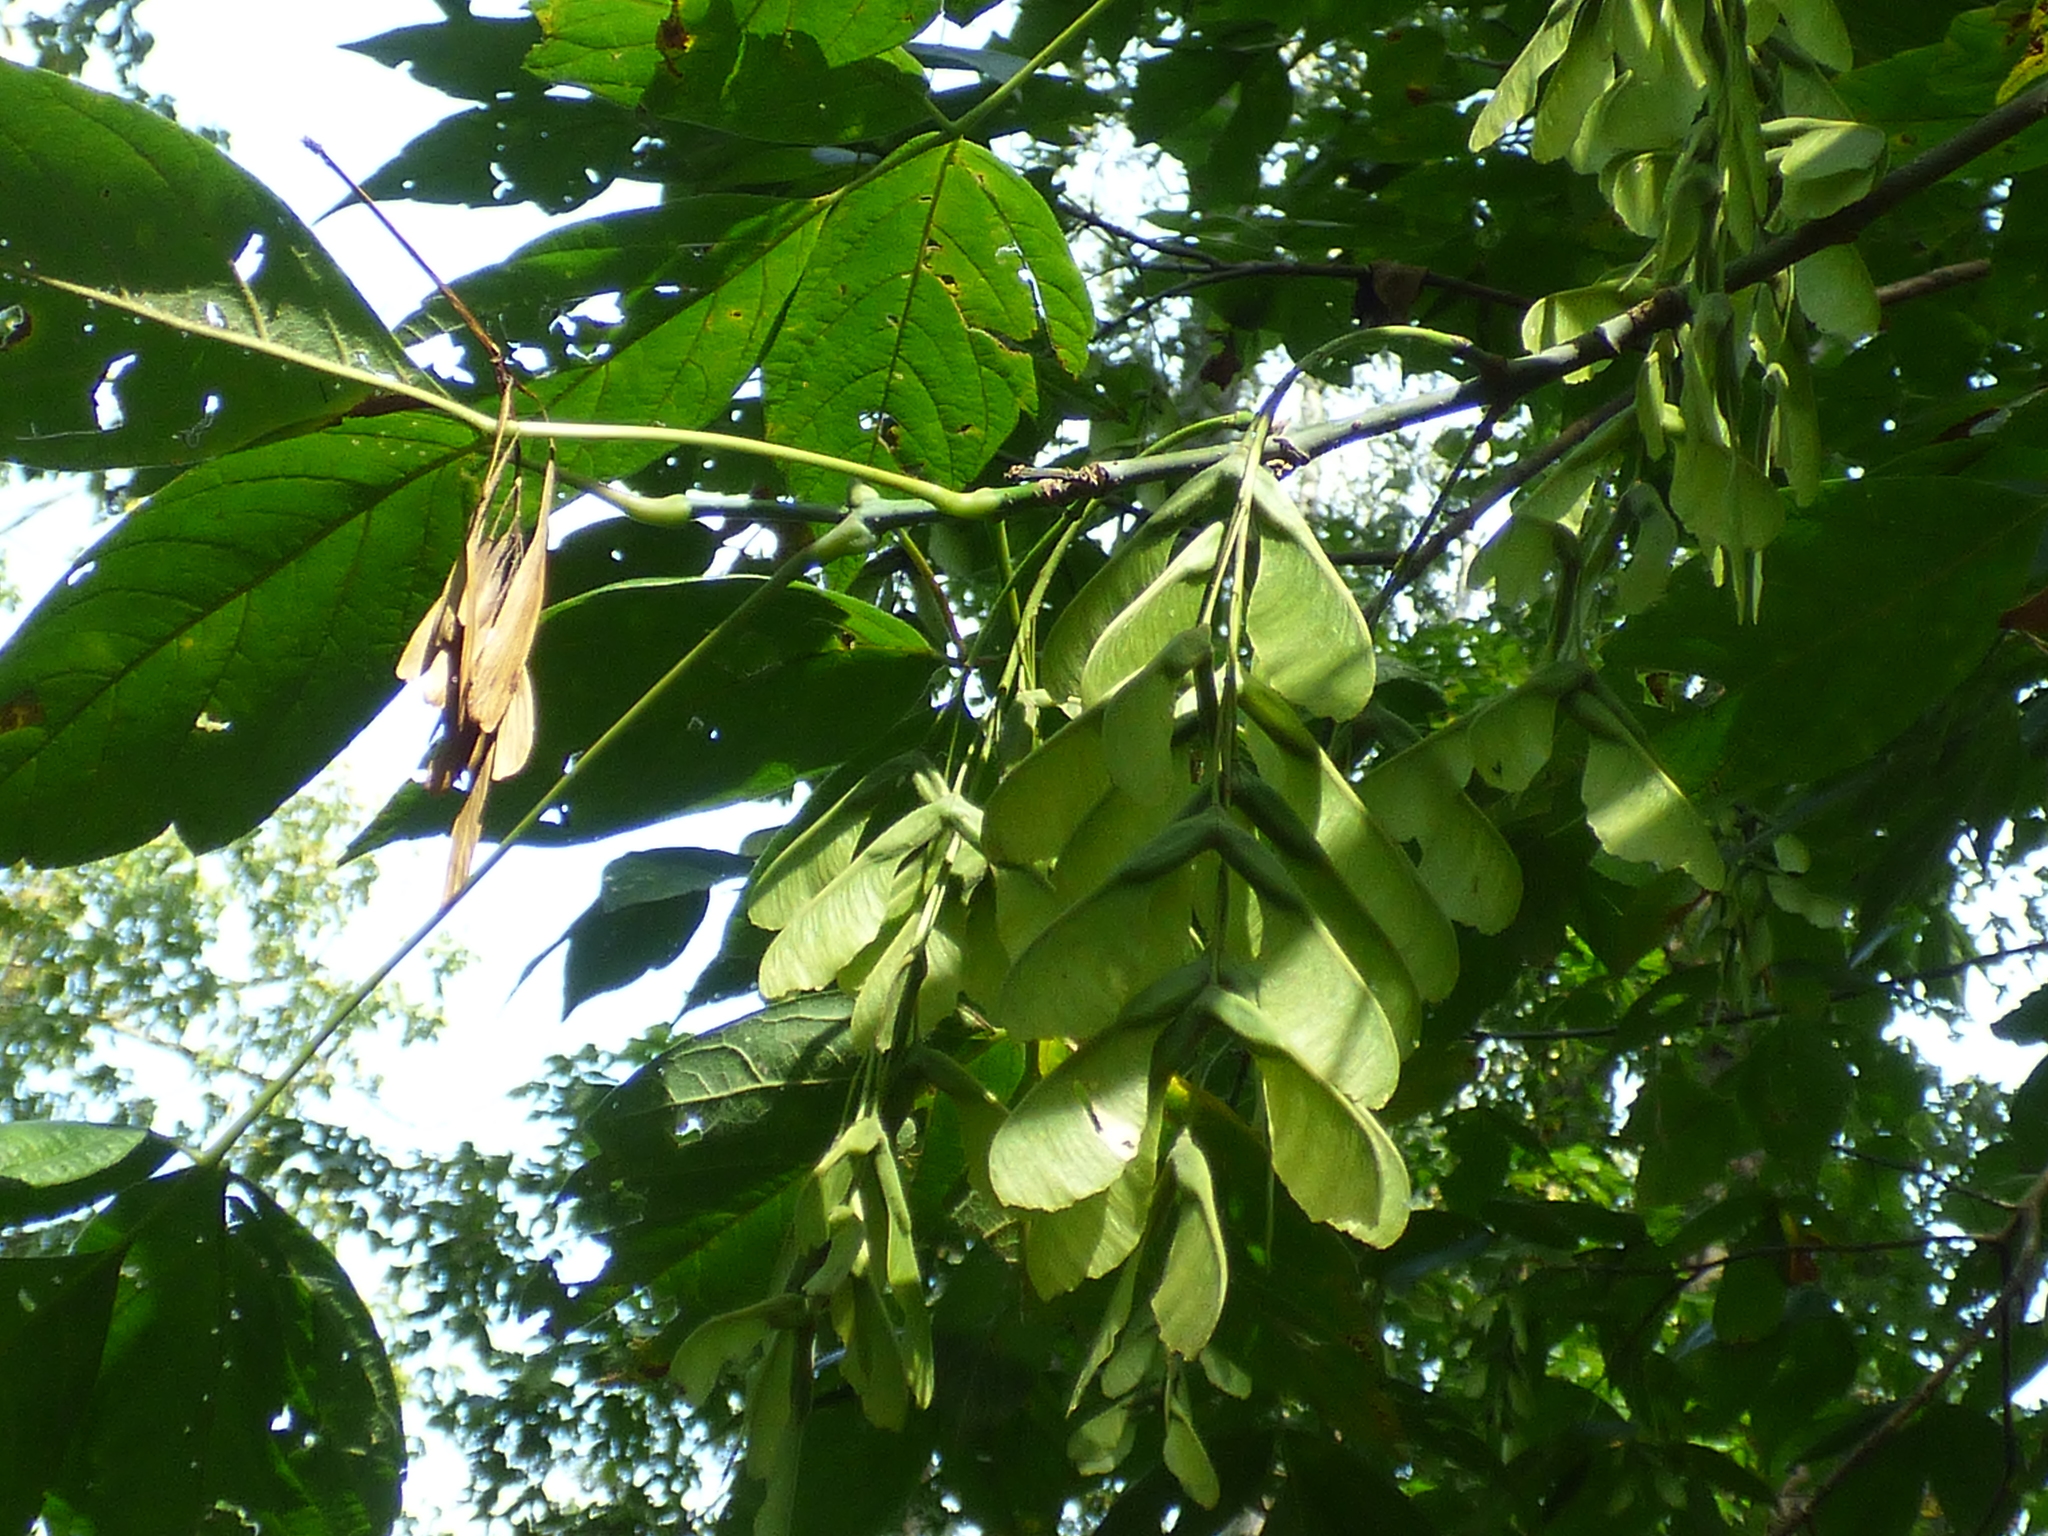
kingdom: Plantae
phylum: Tracheophyta
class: Magnoliopsida
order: Sapindales
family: Sapindaceae
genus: Acer
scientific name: Acer negundo
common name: Ashleaf maple
